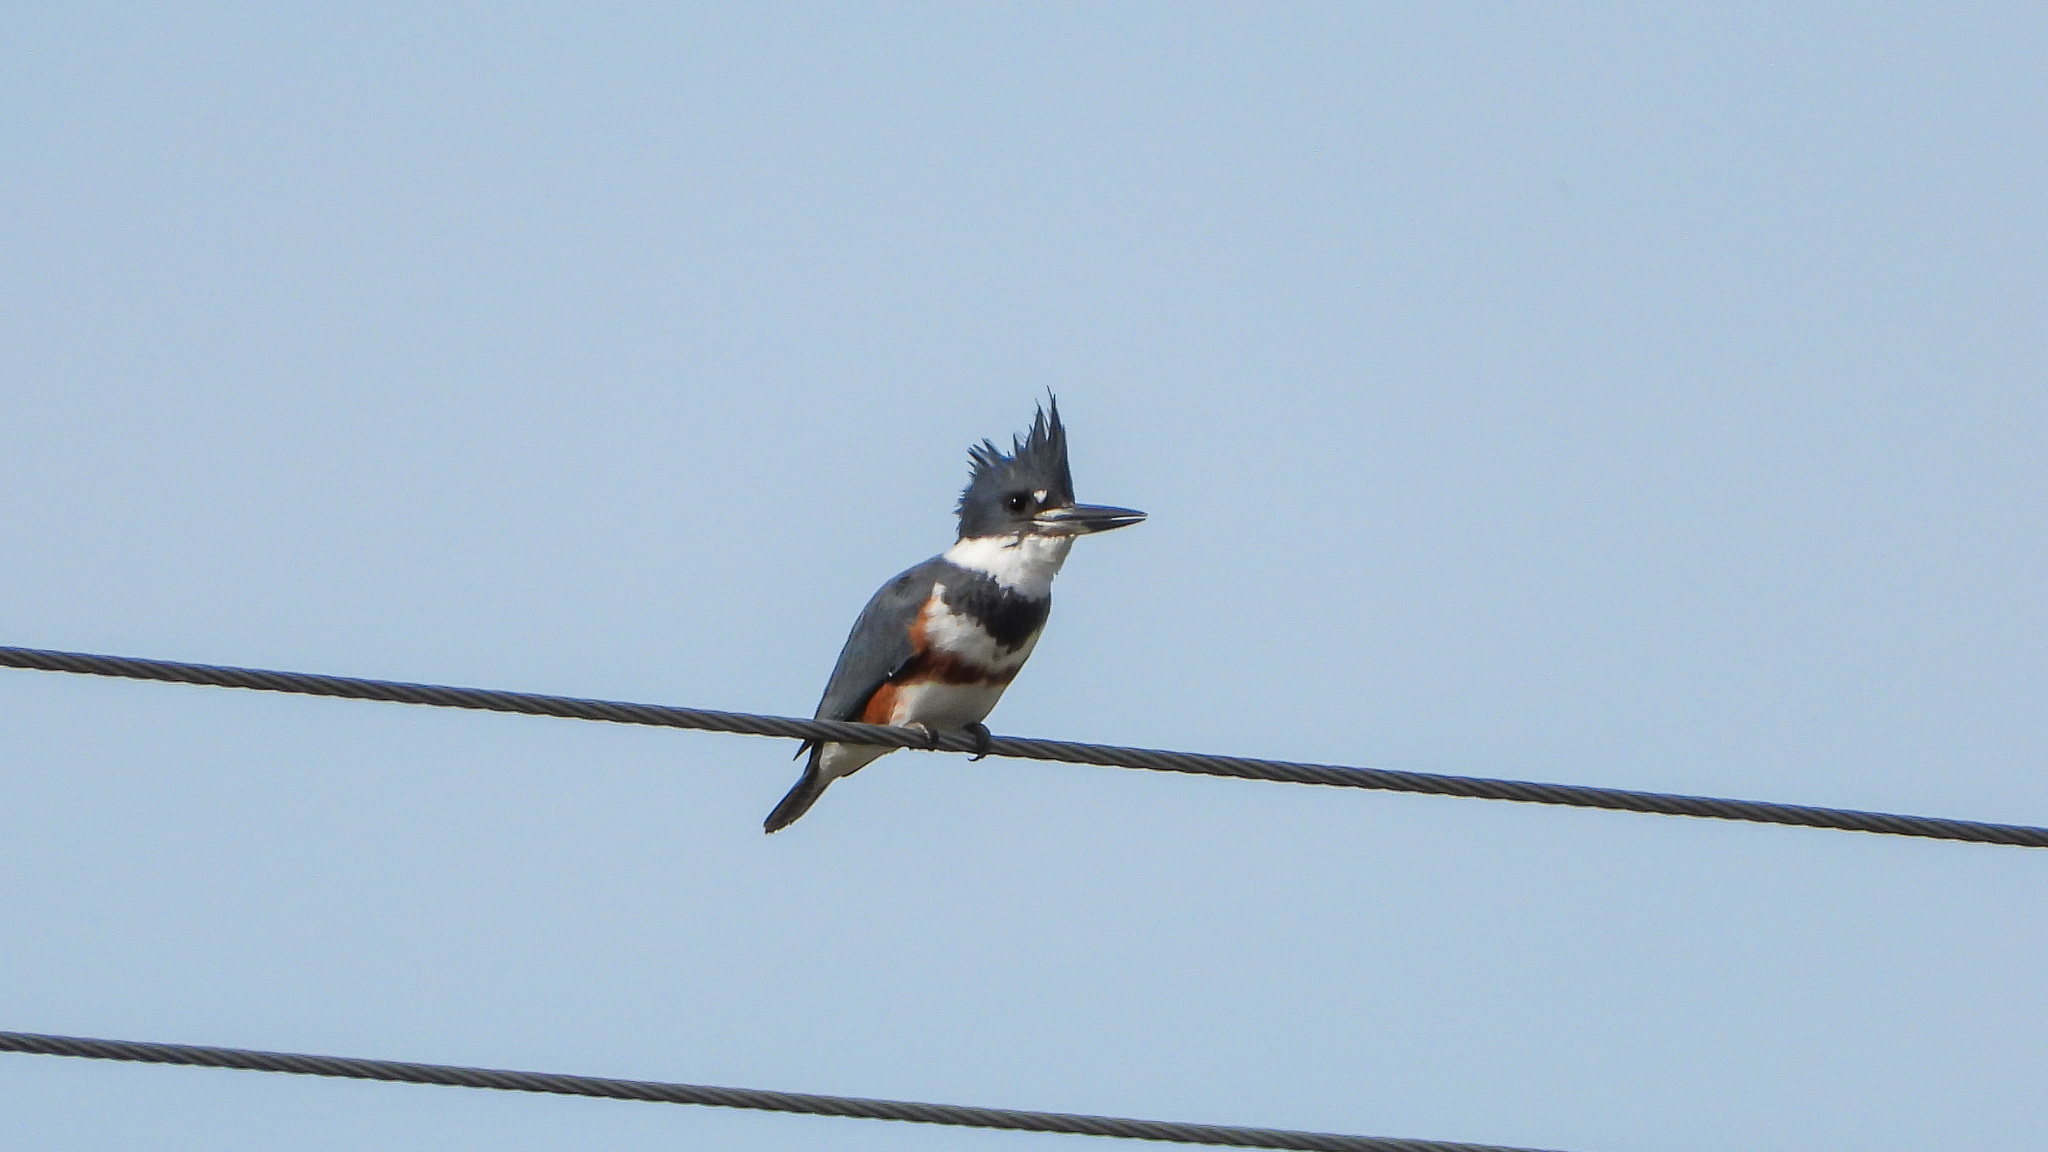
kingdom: Animalia
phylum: Chordata
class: Aves
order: Coraciiformes
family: Alcedinidae
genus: Megaceryle
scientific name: Megaceryle alcyon
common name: Belted kingfisher
